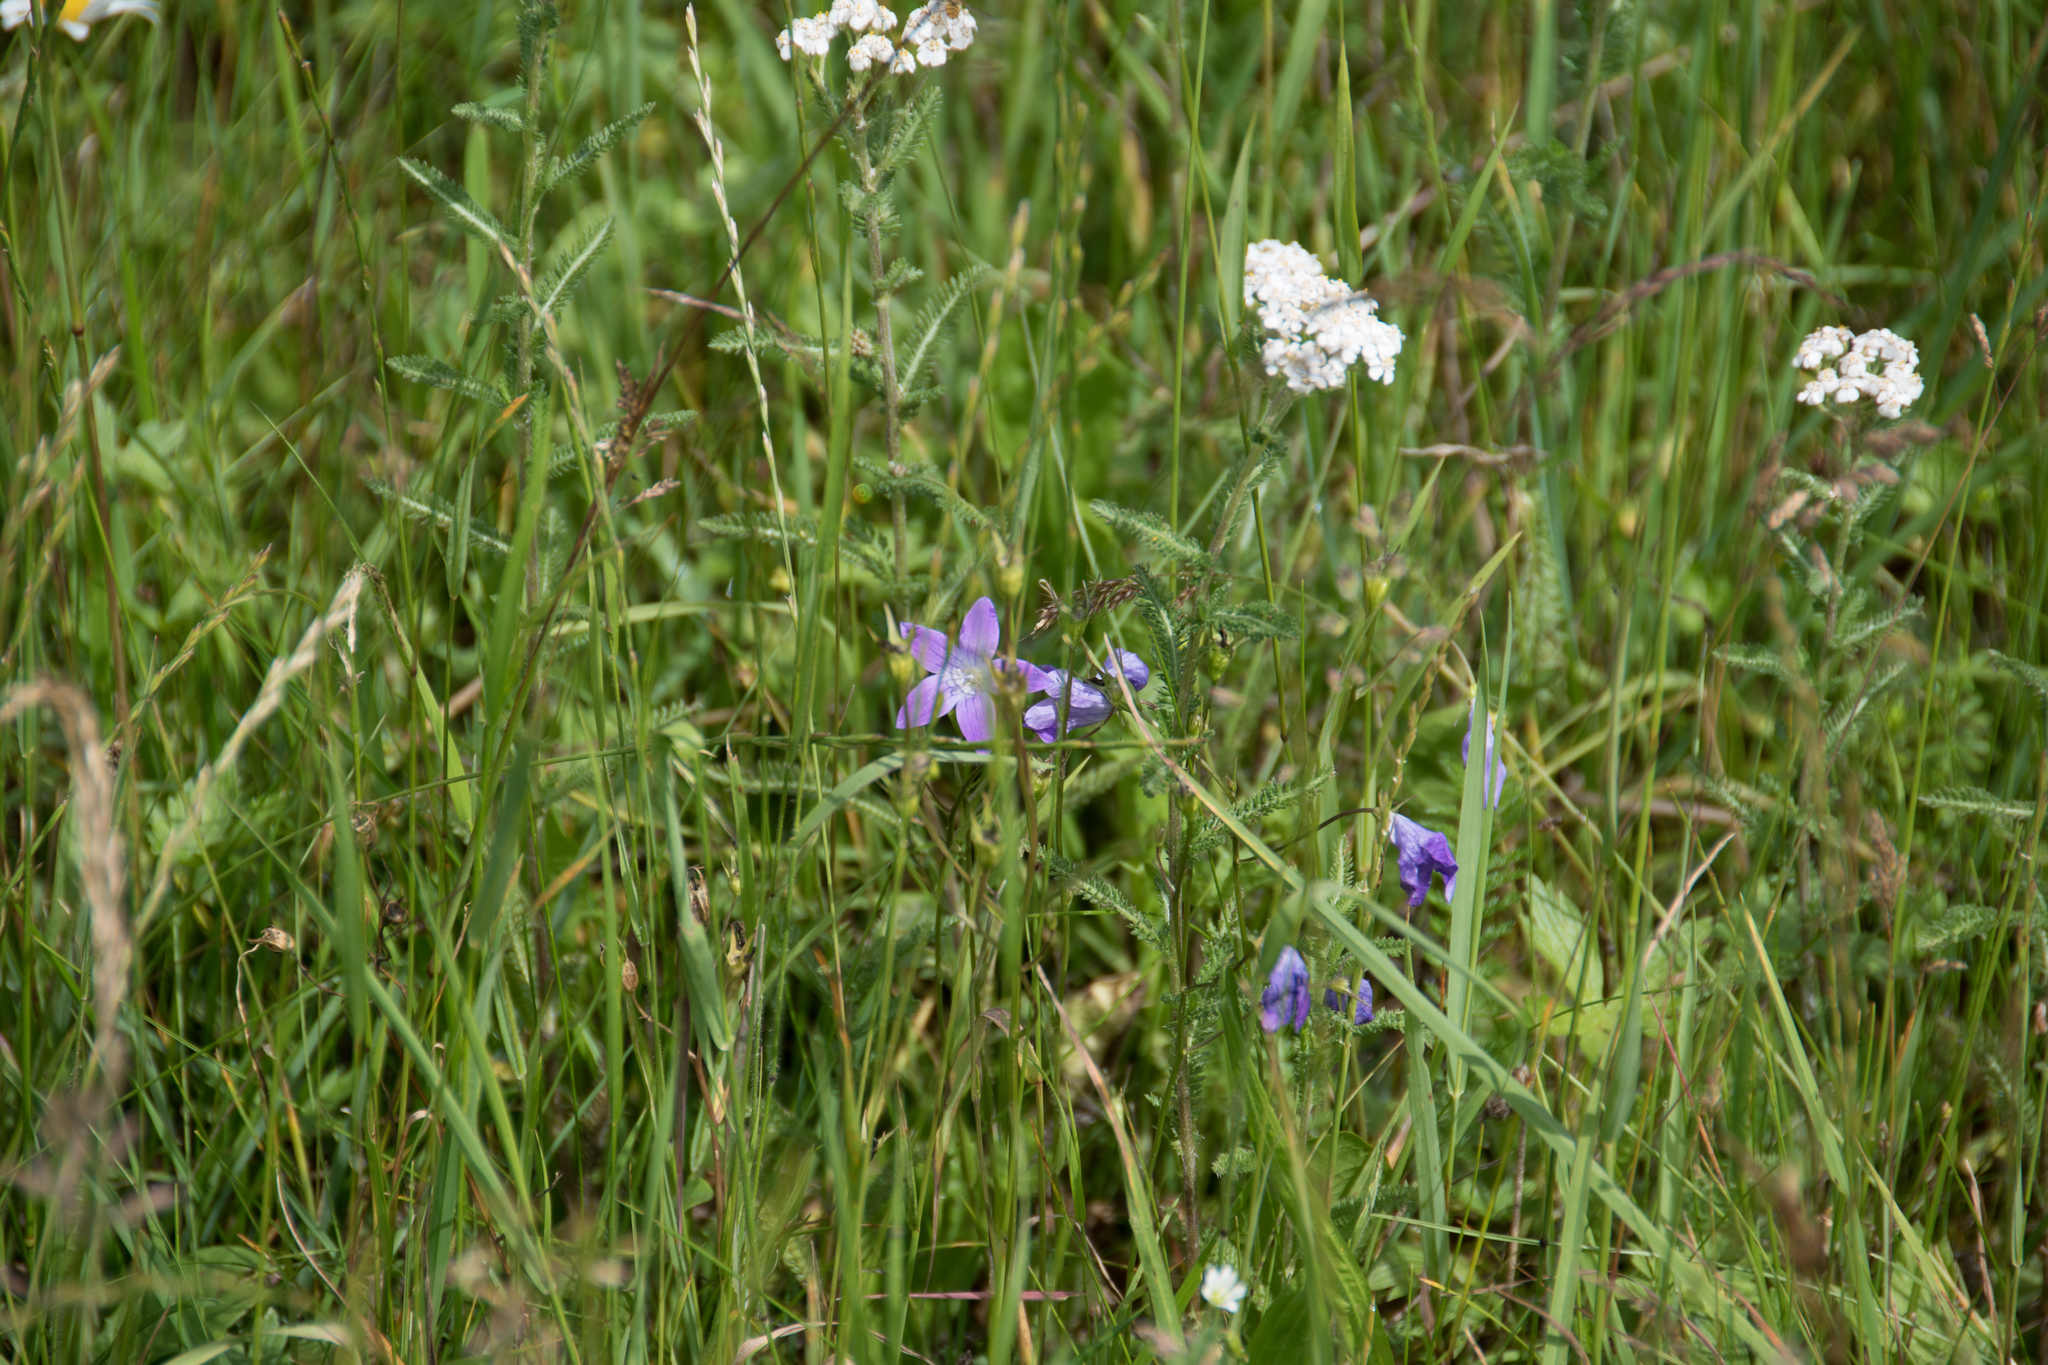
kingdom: Plantae
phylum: Tracheophyta
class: Magnoliopsida
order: Asterales
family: Campanulaceae
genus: Campanula
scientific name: Campanula patula
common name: Spreading bellflower
